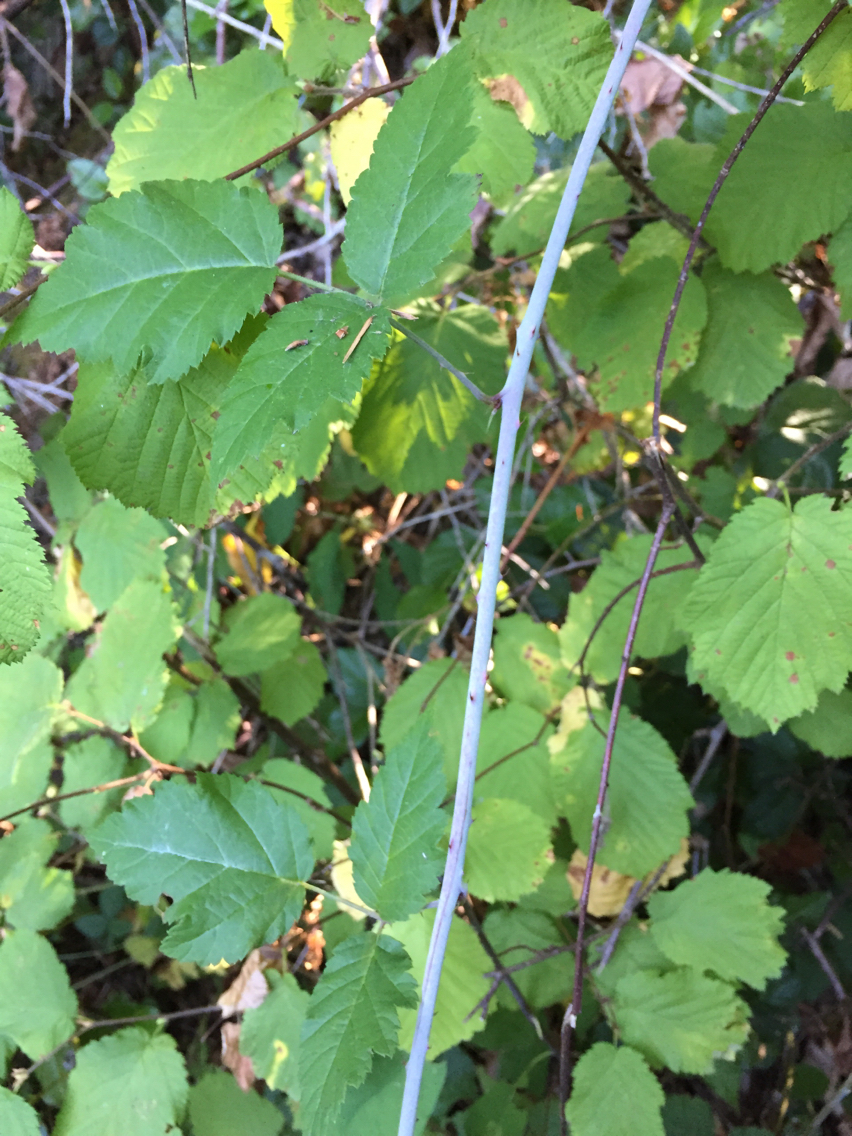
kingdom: Plantae
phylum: Tracheophyta
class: Magnoliopsida
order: Rosales
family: Rosaceae
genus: Rubus
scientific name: Rubus ursinus
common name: Pacific blackberry
